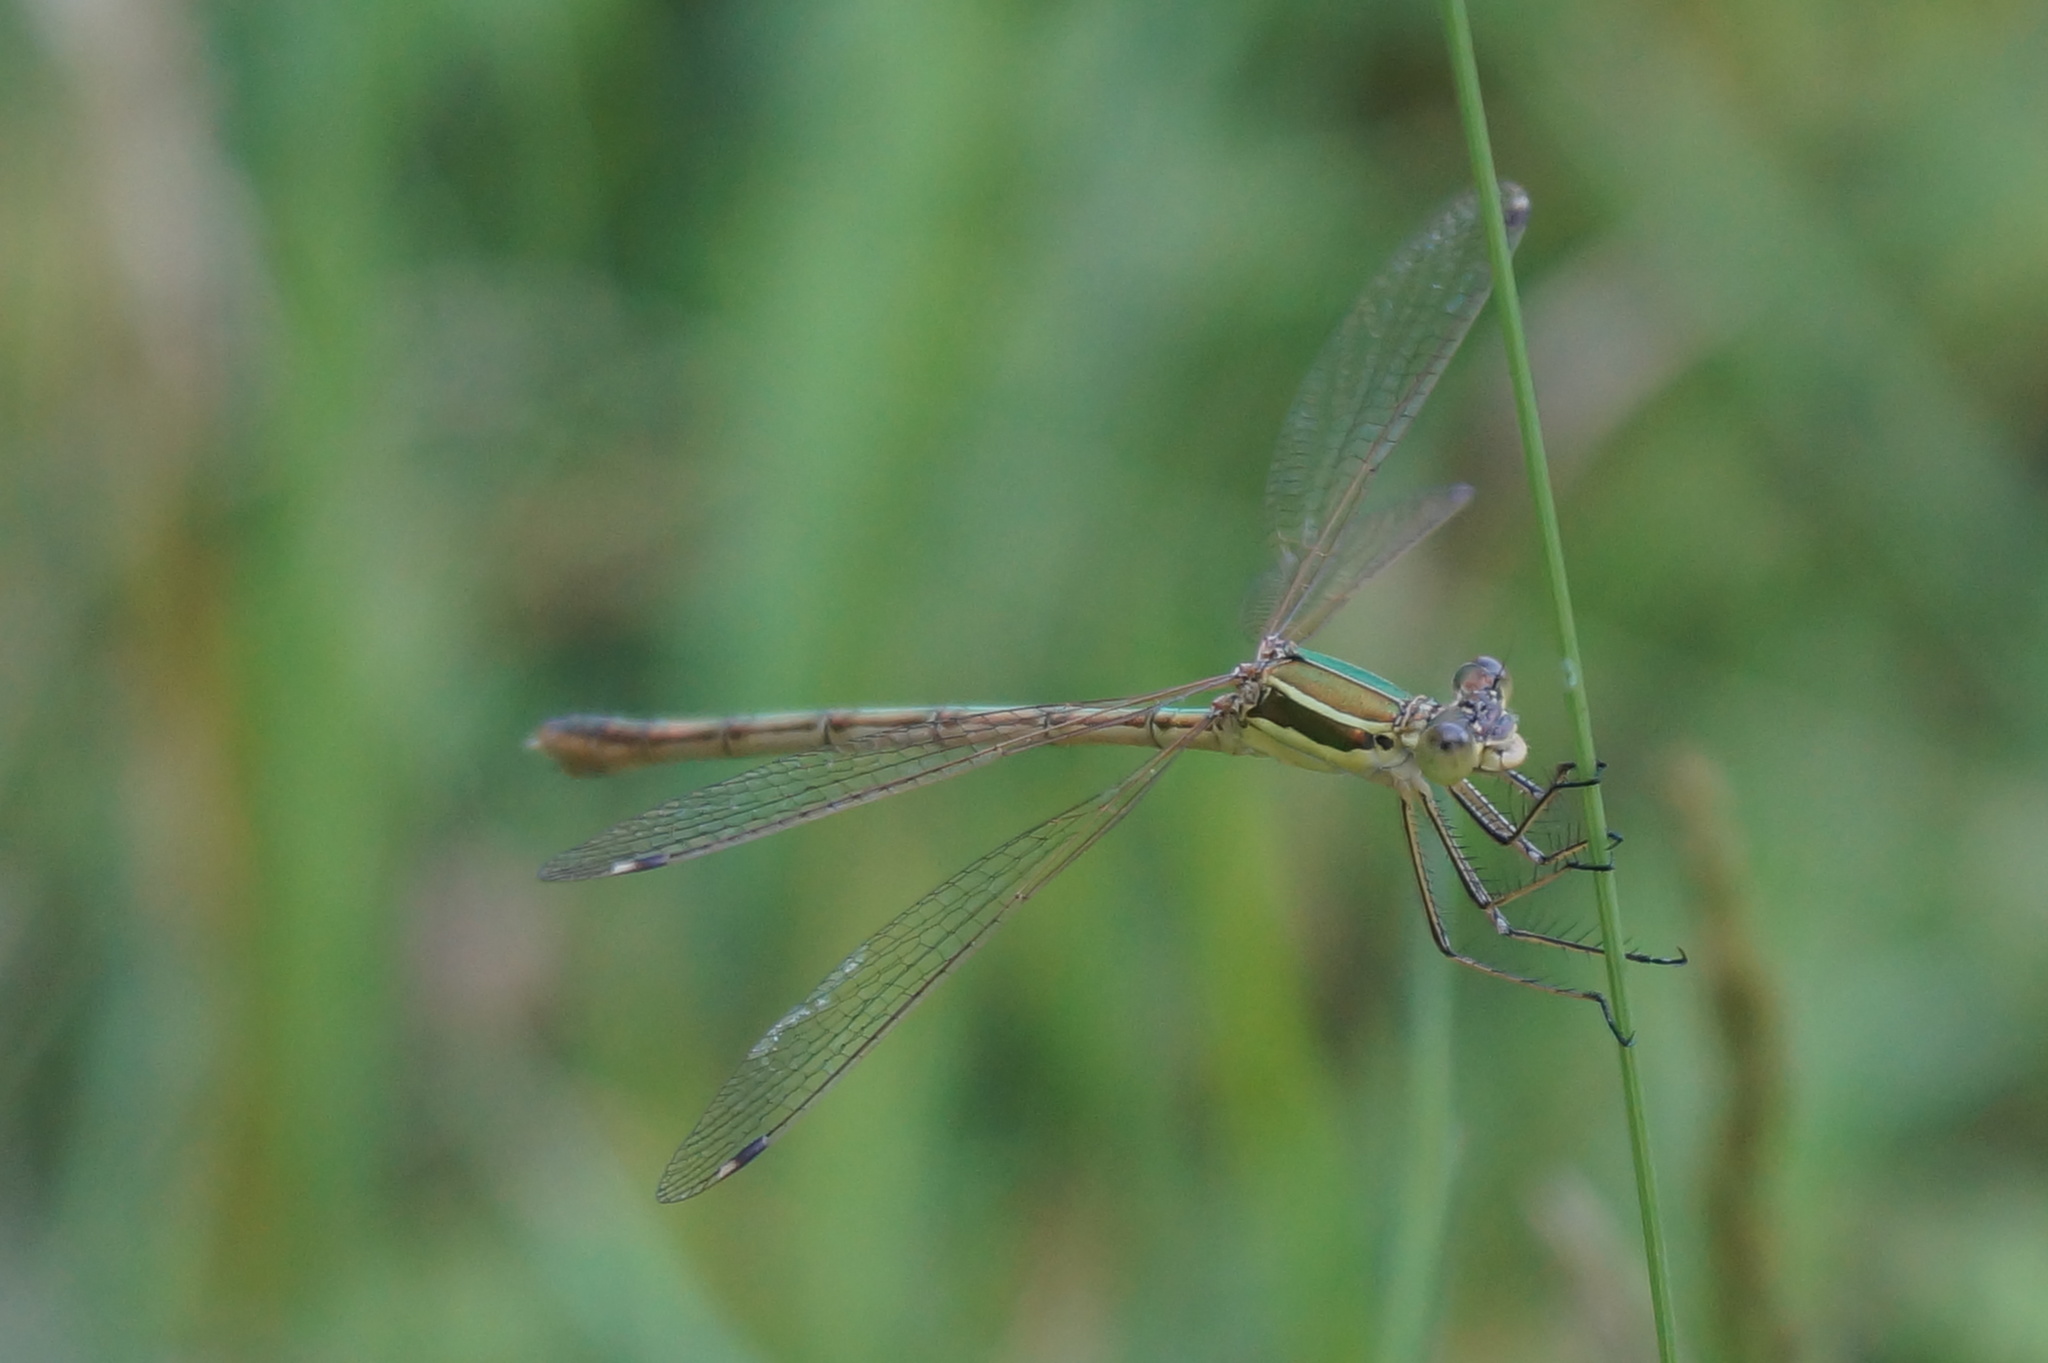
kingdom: Animalia
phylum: Arthropoda
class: Insecta
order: Odonata
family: Lestidae
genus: Lestes
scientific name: Lestes barbarus
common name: Migrant spreadwing
